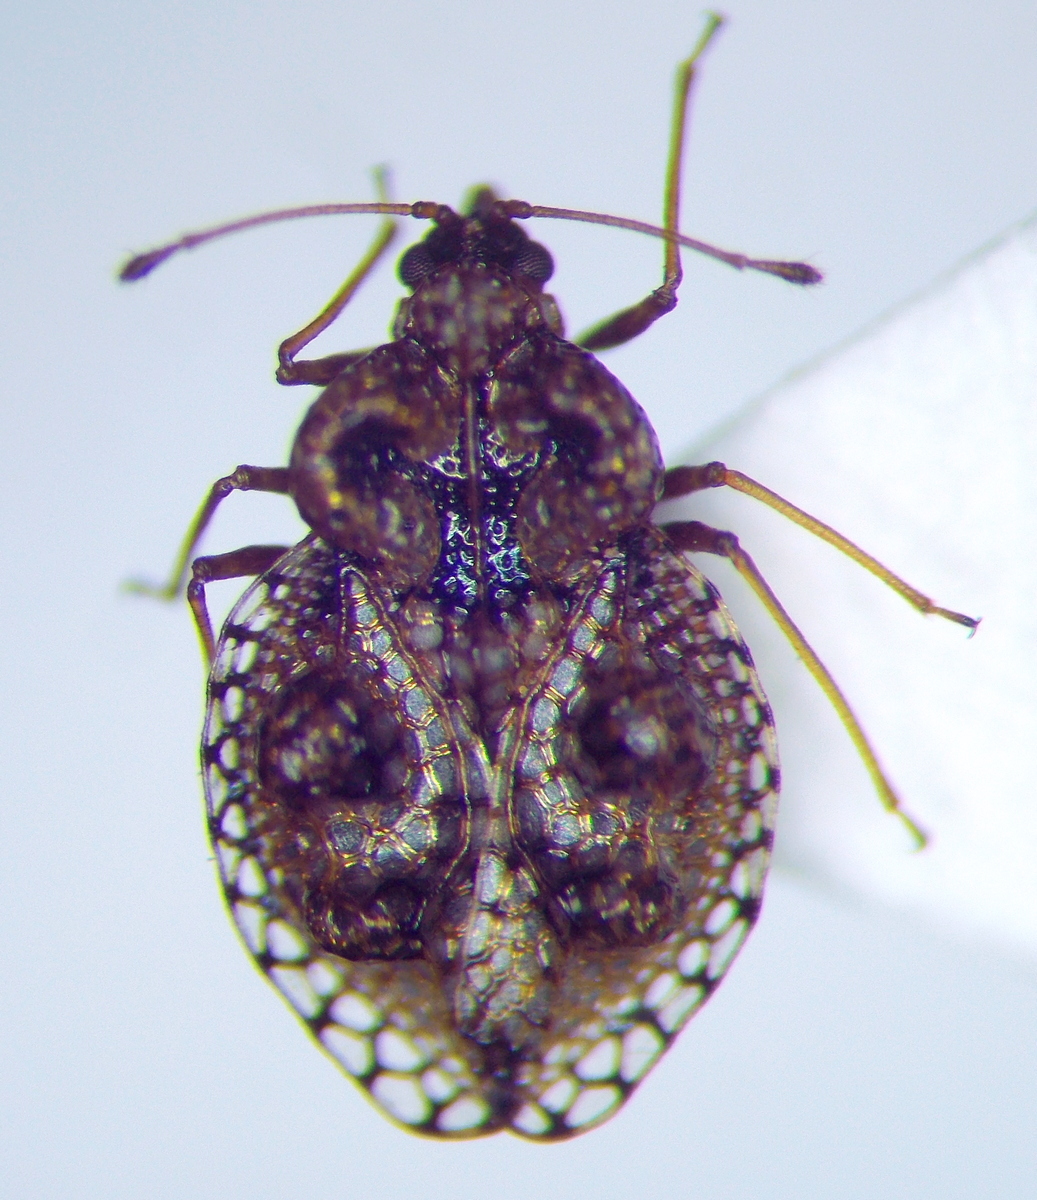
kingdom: Animalia
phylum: Arthropoda
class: Insecta
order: Hemiptera
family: Tingidae
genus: Dictyla
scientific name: Dictyla rotundata
